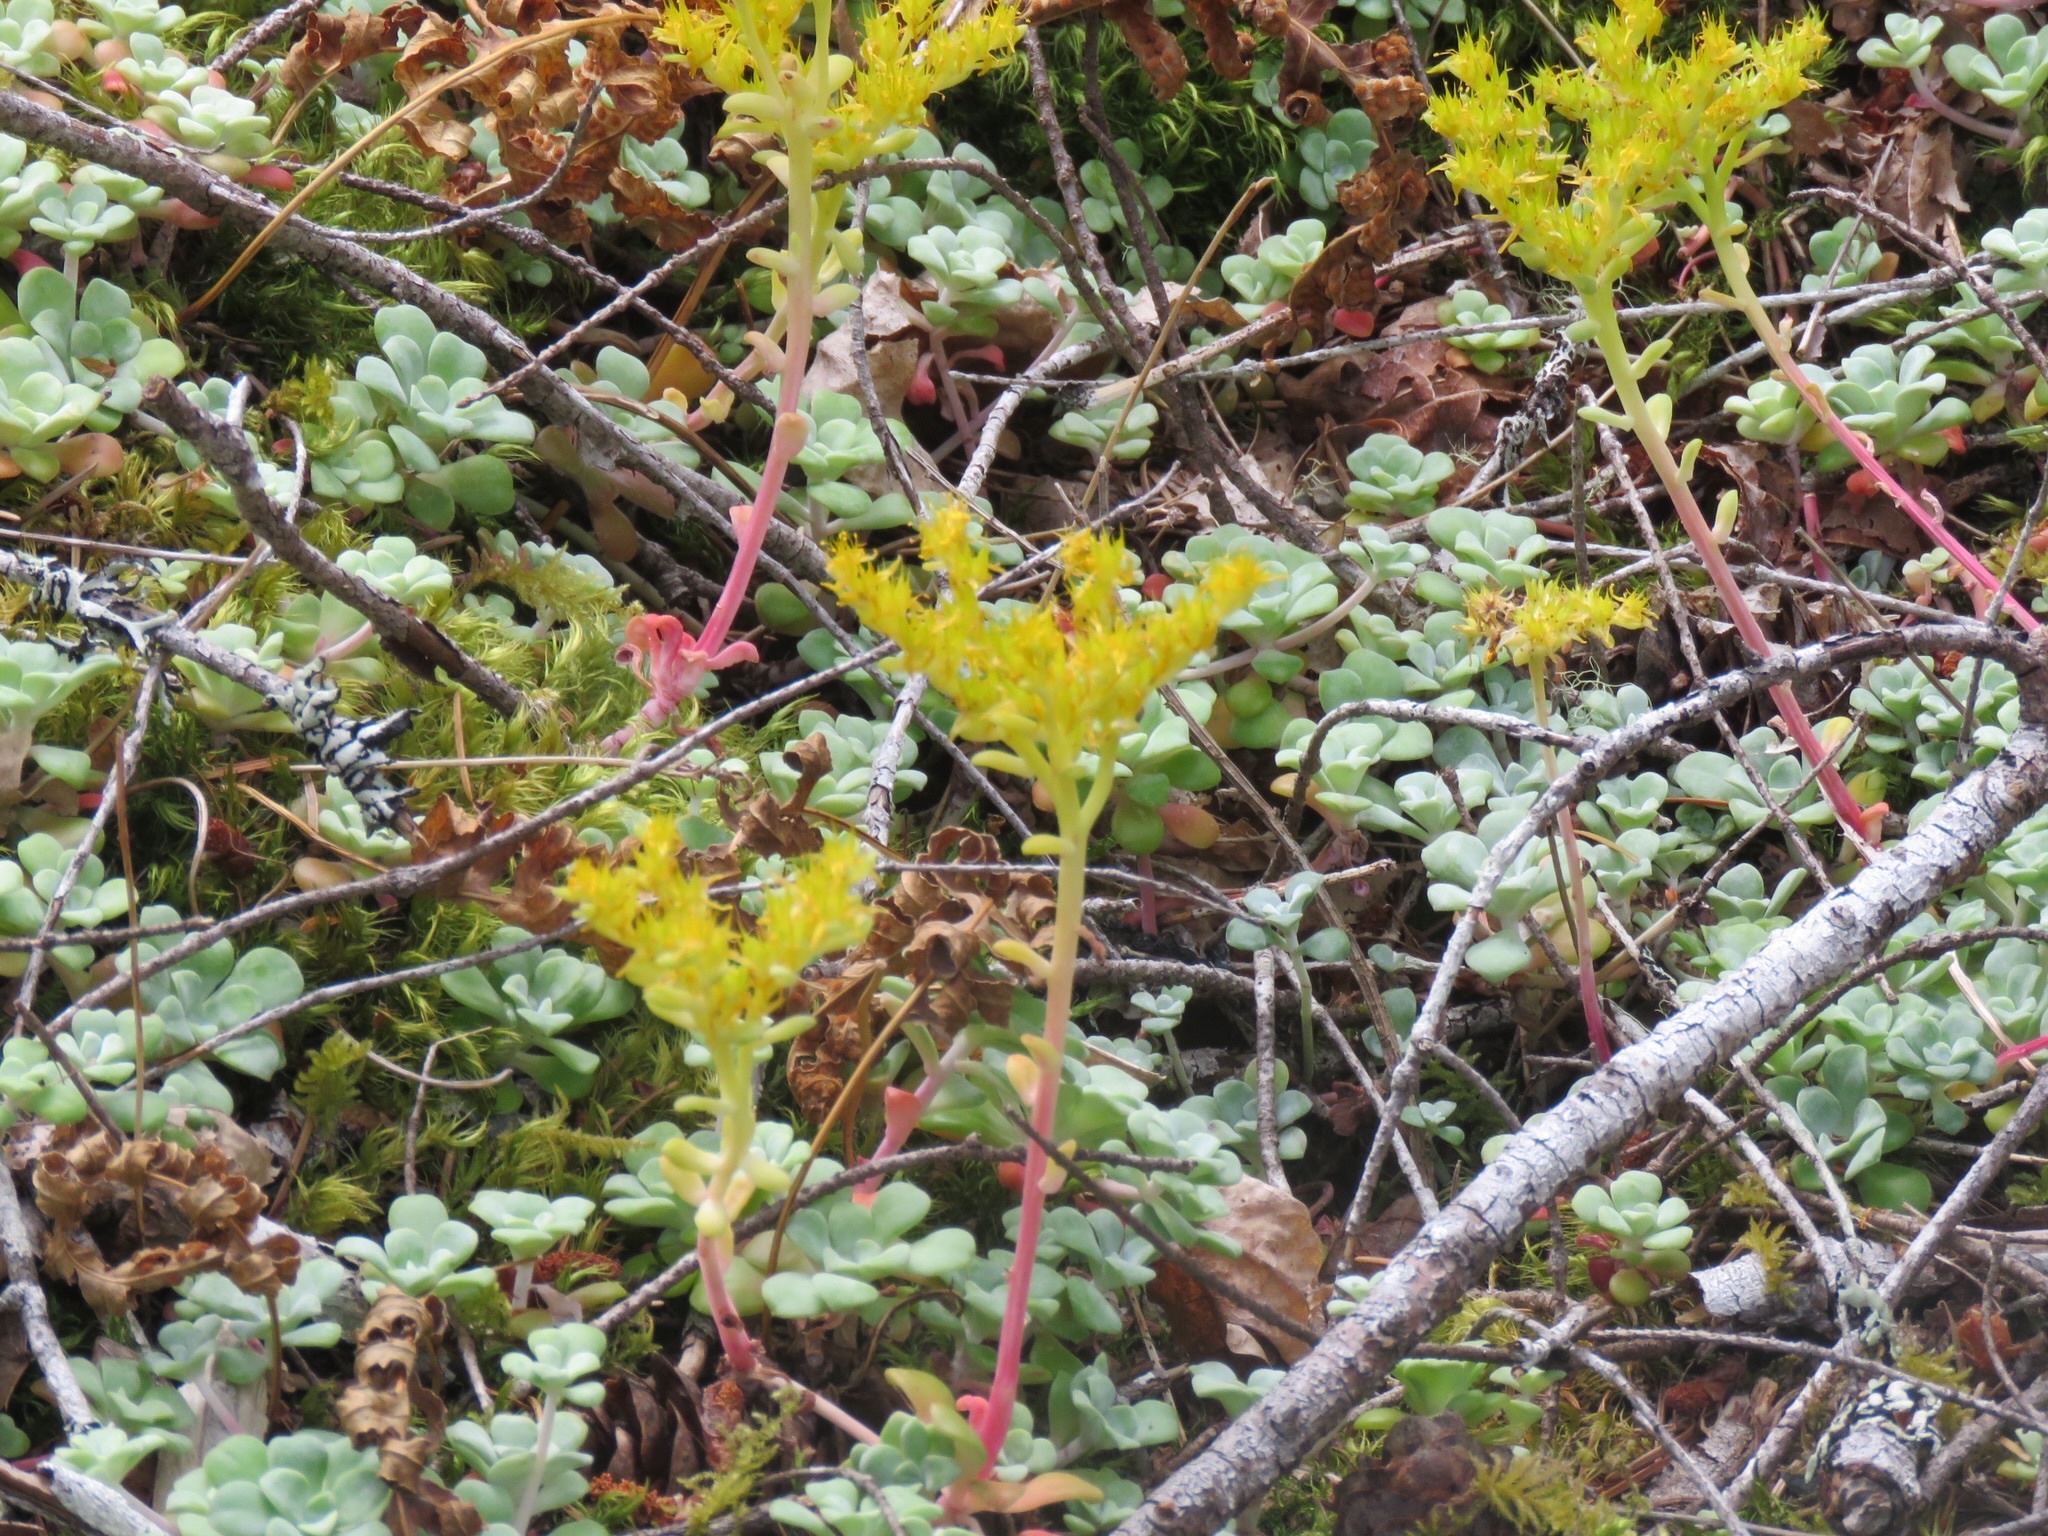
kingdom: Plantae
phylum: Tracheophyta
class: Magnoliopsida
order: Saxifragales
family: Crassulaceae
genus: Sedum
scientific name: Sedum spathulifolium
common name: Colorado stonecrop
